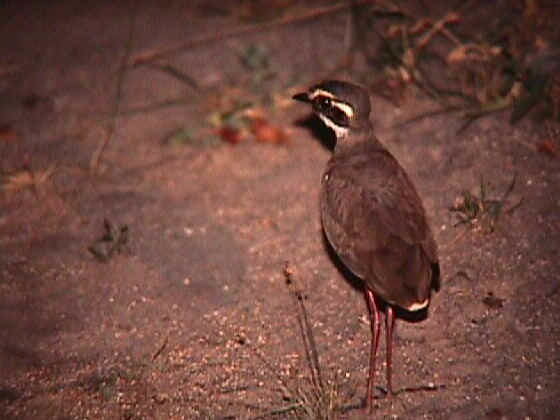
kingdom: Animalia
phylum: Chordata
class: Aves
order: Charadriiformes
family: Glareolidae
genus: Rhinoptilus
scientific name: Rhinoptilus chalcopterus
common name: Bronze-winged courser
